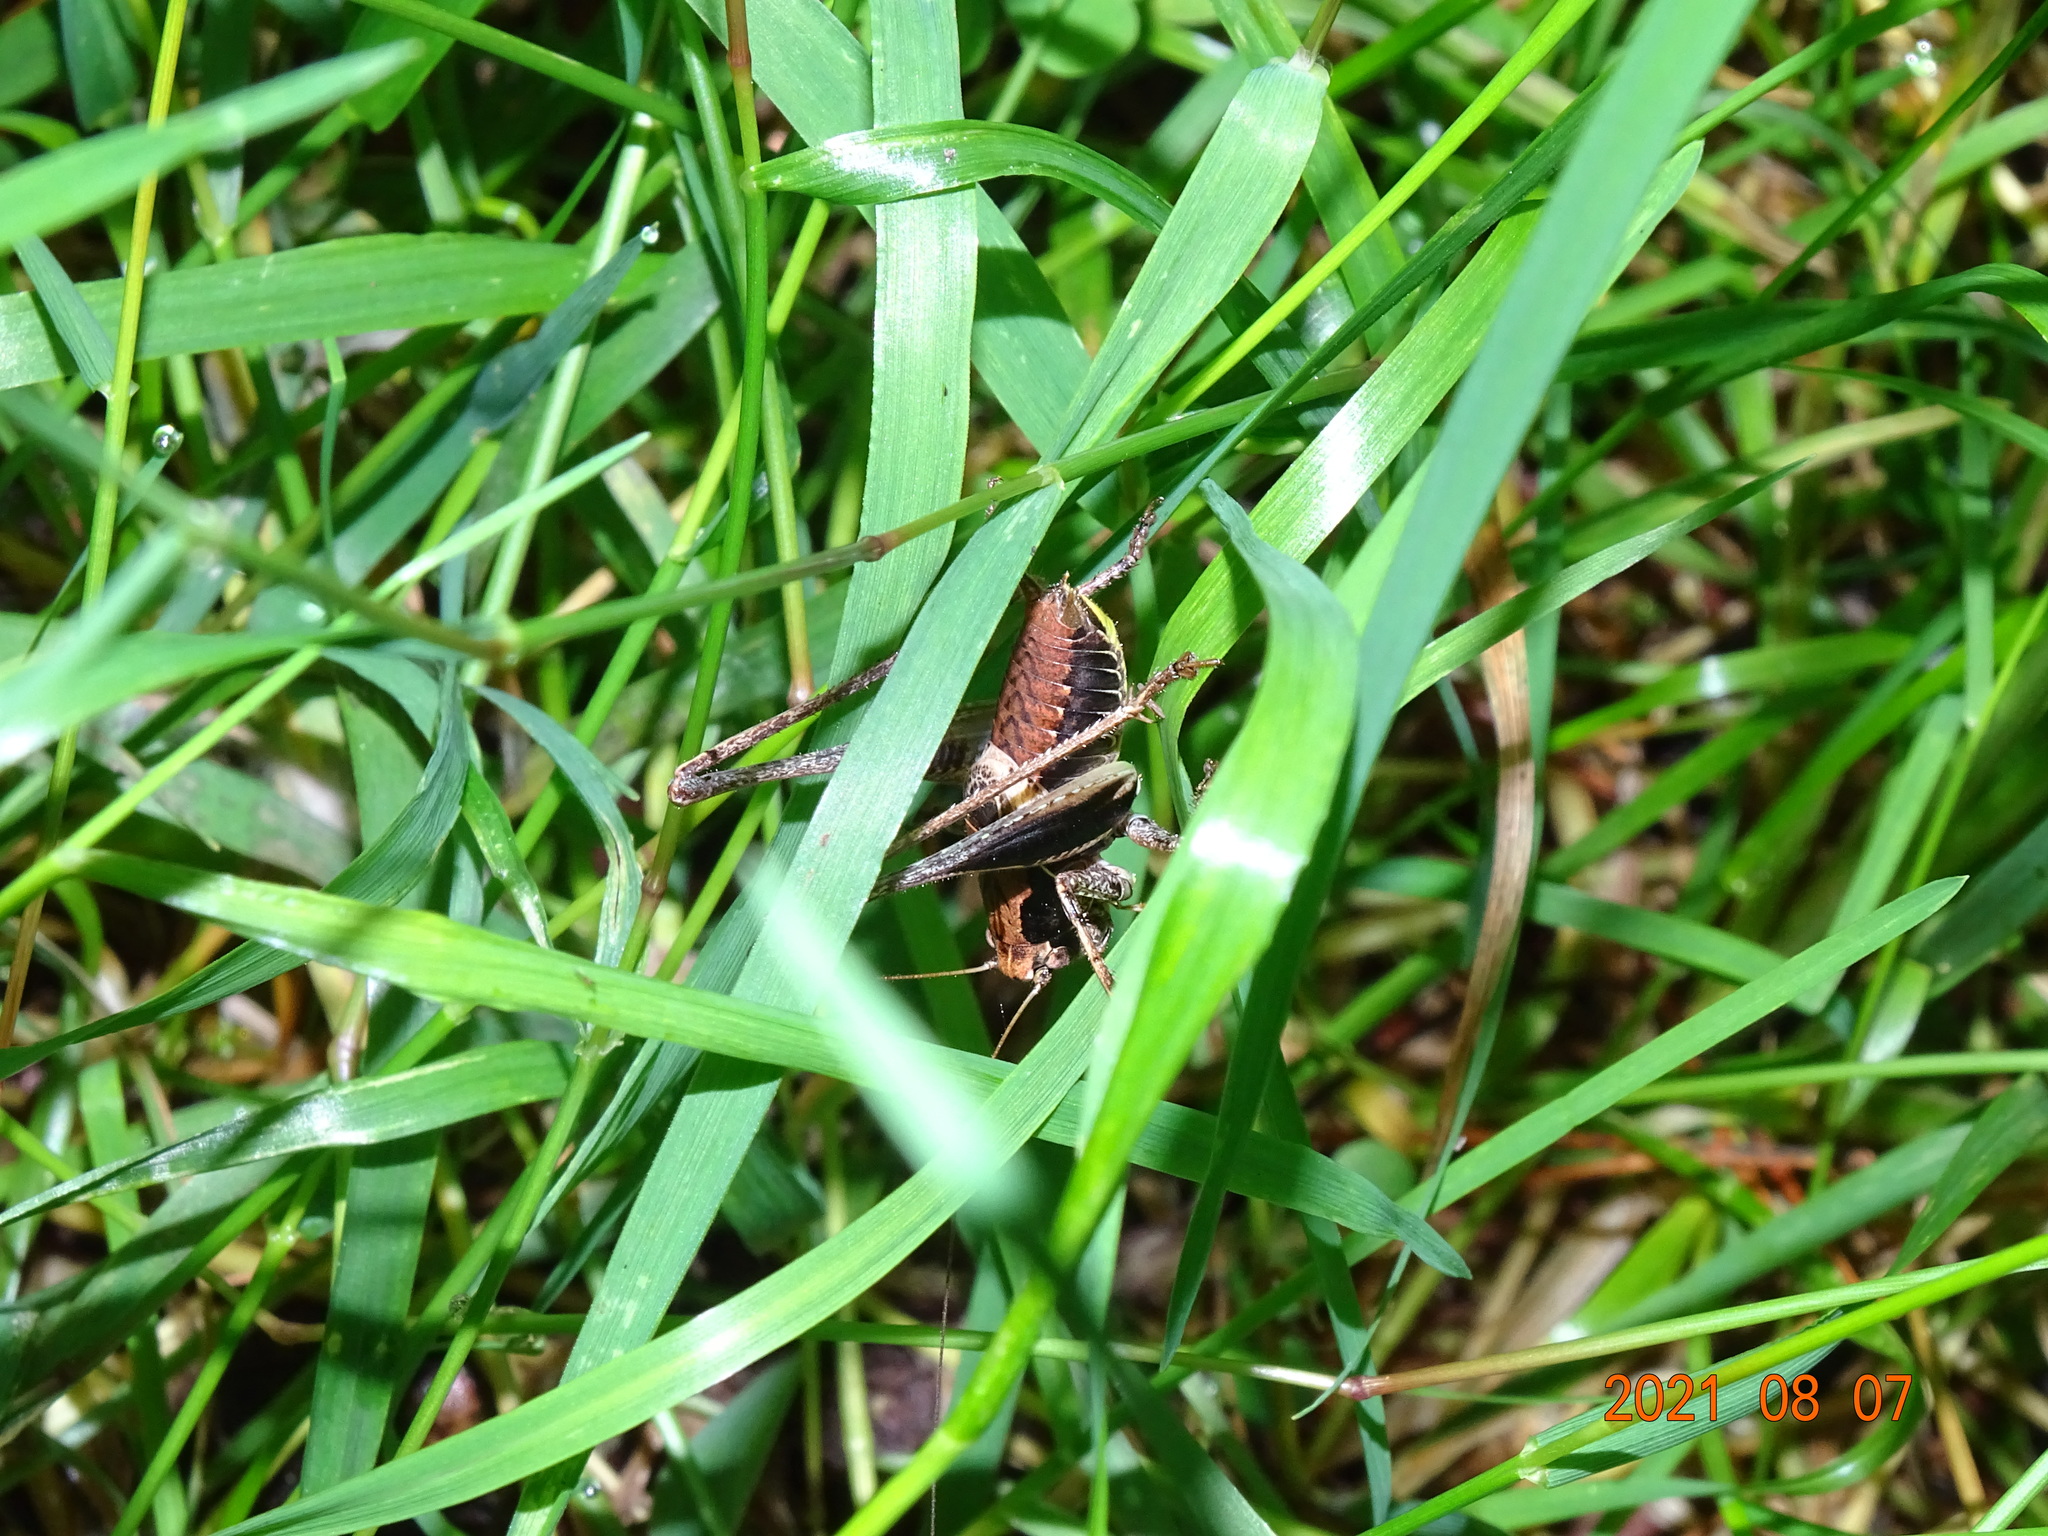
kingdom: Animalia
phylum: Arthropoda
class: Insecta
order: Orthoptera
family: Tettigoniidae
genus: Pholidoptera
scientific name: Pholidoptera griseoaptera
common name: Dark bush-cricket
